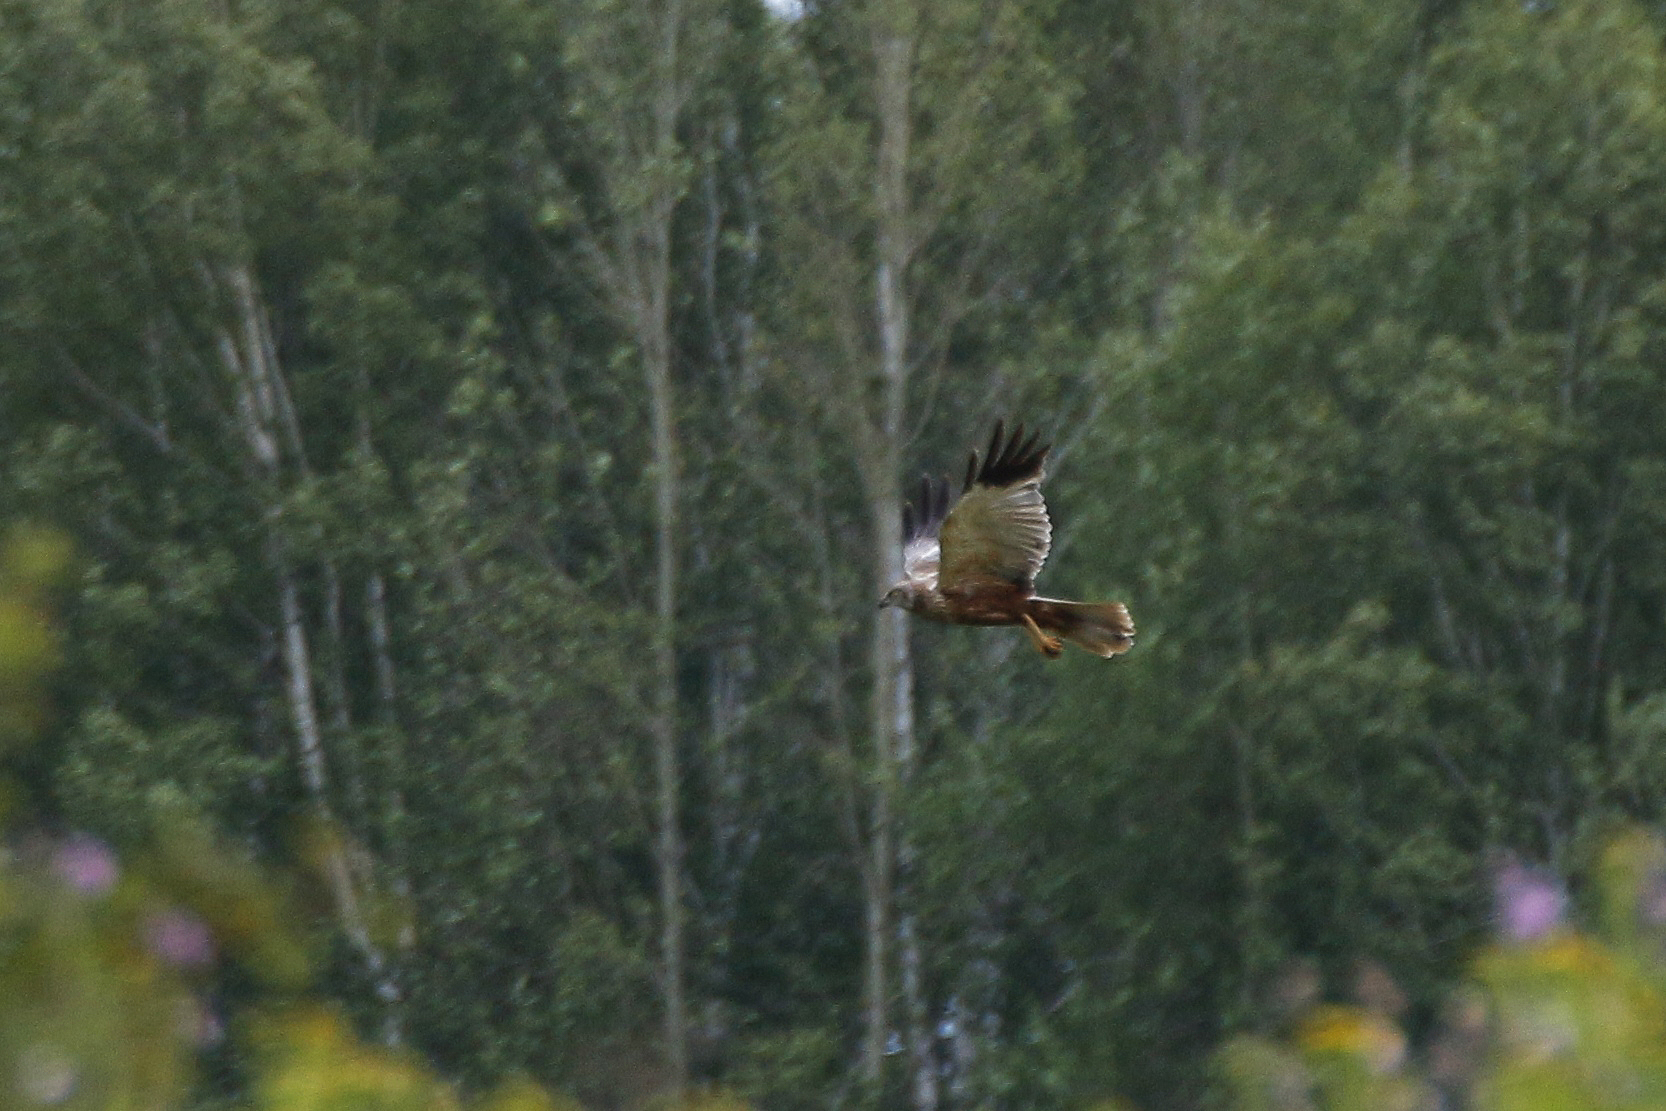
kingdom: Animalia
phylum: Chordata
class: Aves
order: Accipitriformes
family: Accipitridae
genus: Circus
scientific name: Circus aeruginosus
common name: Western marsh harrier
